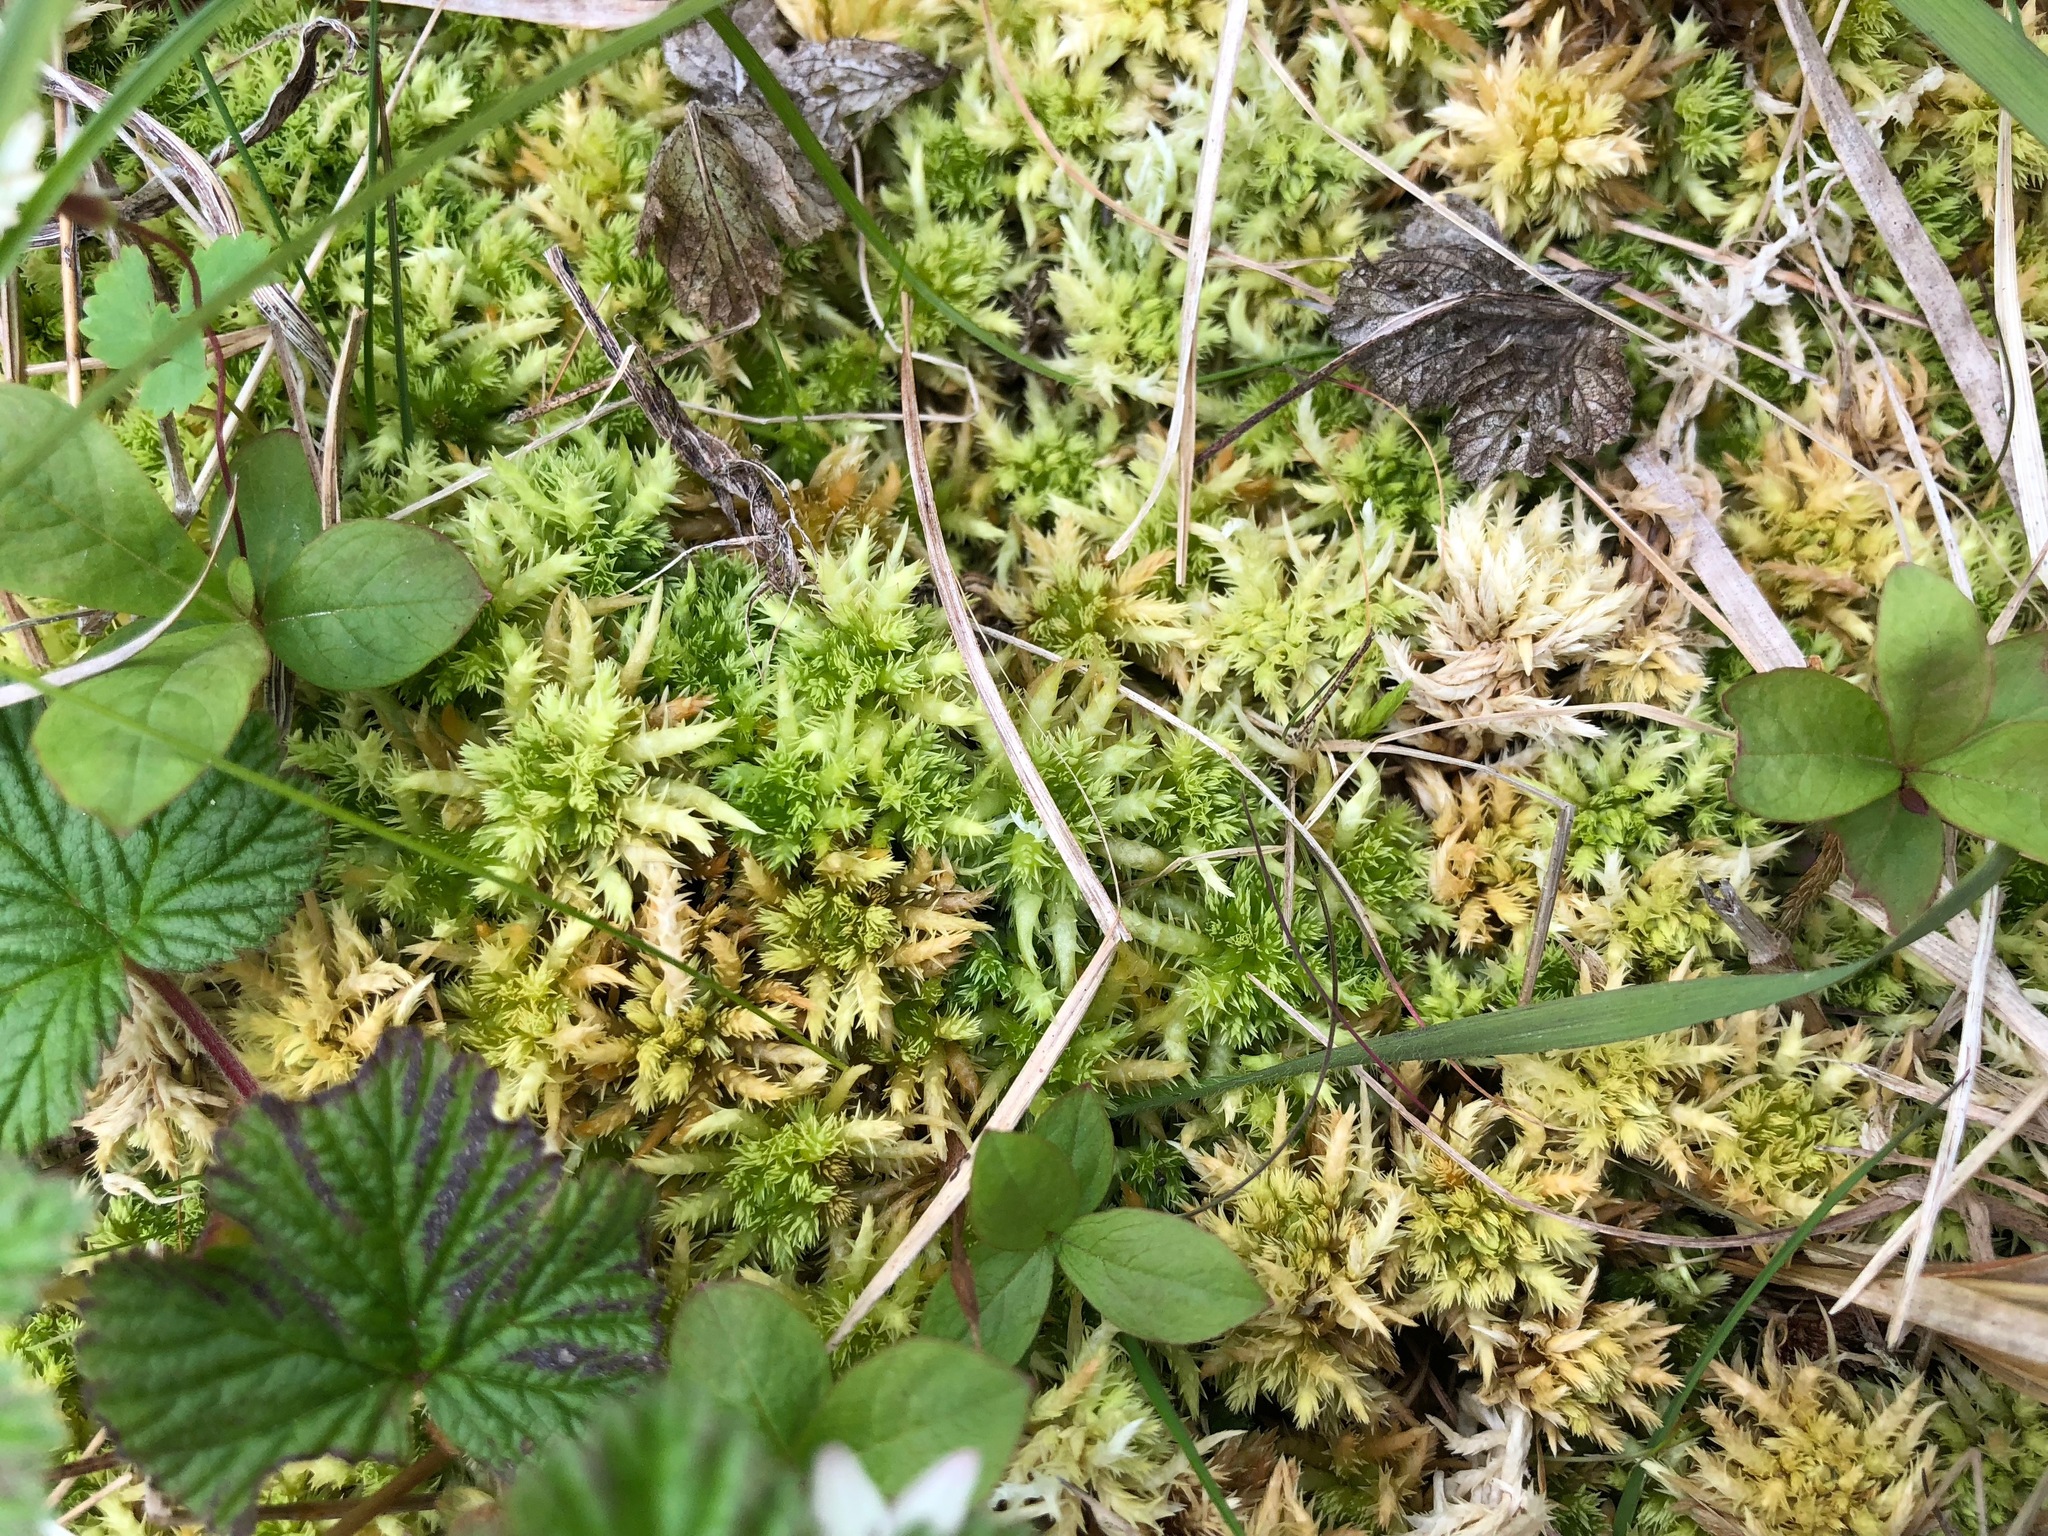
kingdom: Plantae
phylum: Bryophyta
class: Sphagnopsida
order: Sphagnales
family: Sphagnaceae
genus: Sphagnum
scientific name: Sphagnum squarrosum
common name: Shaggy peat moss
